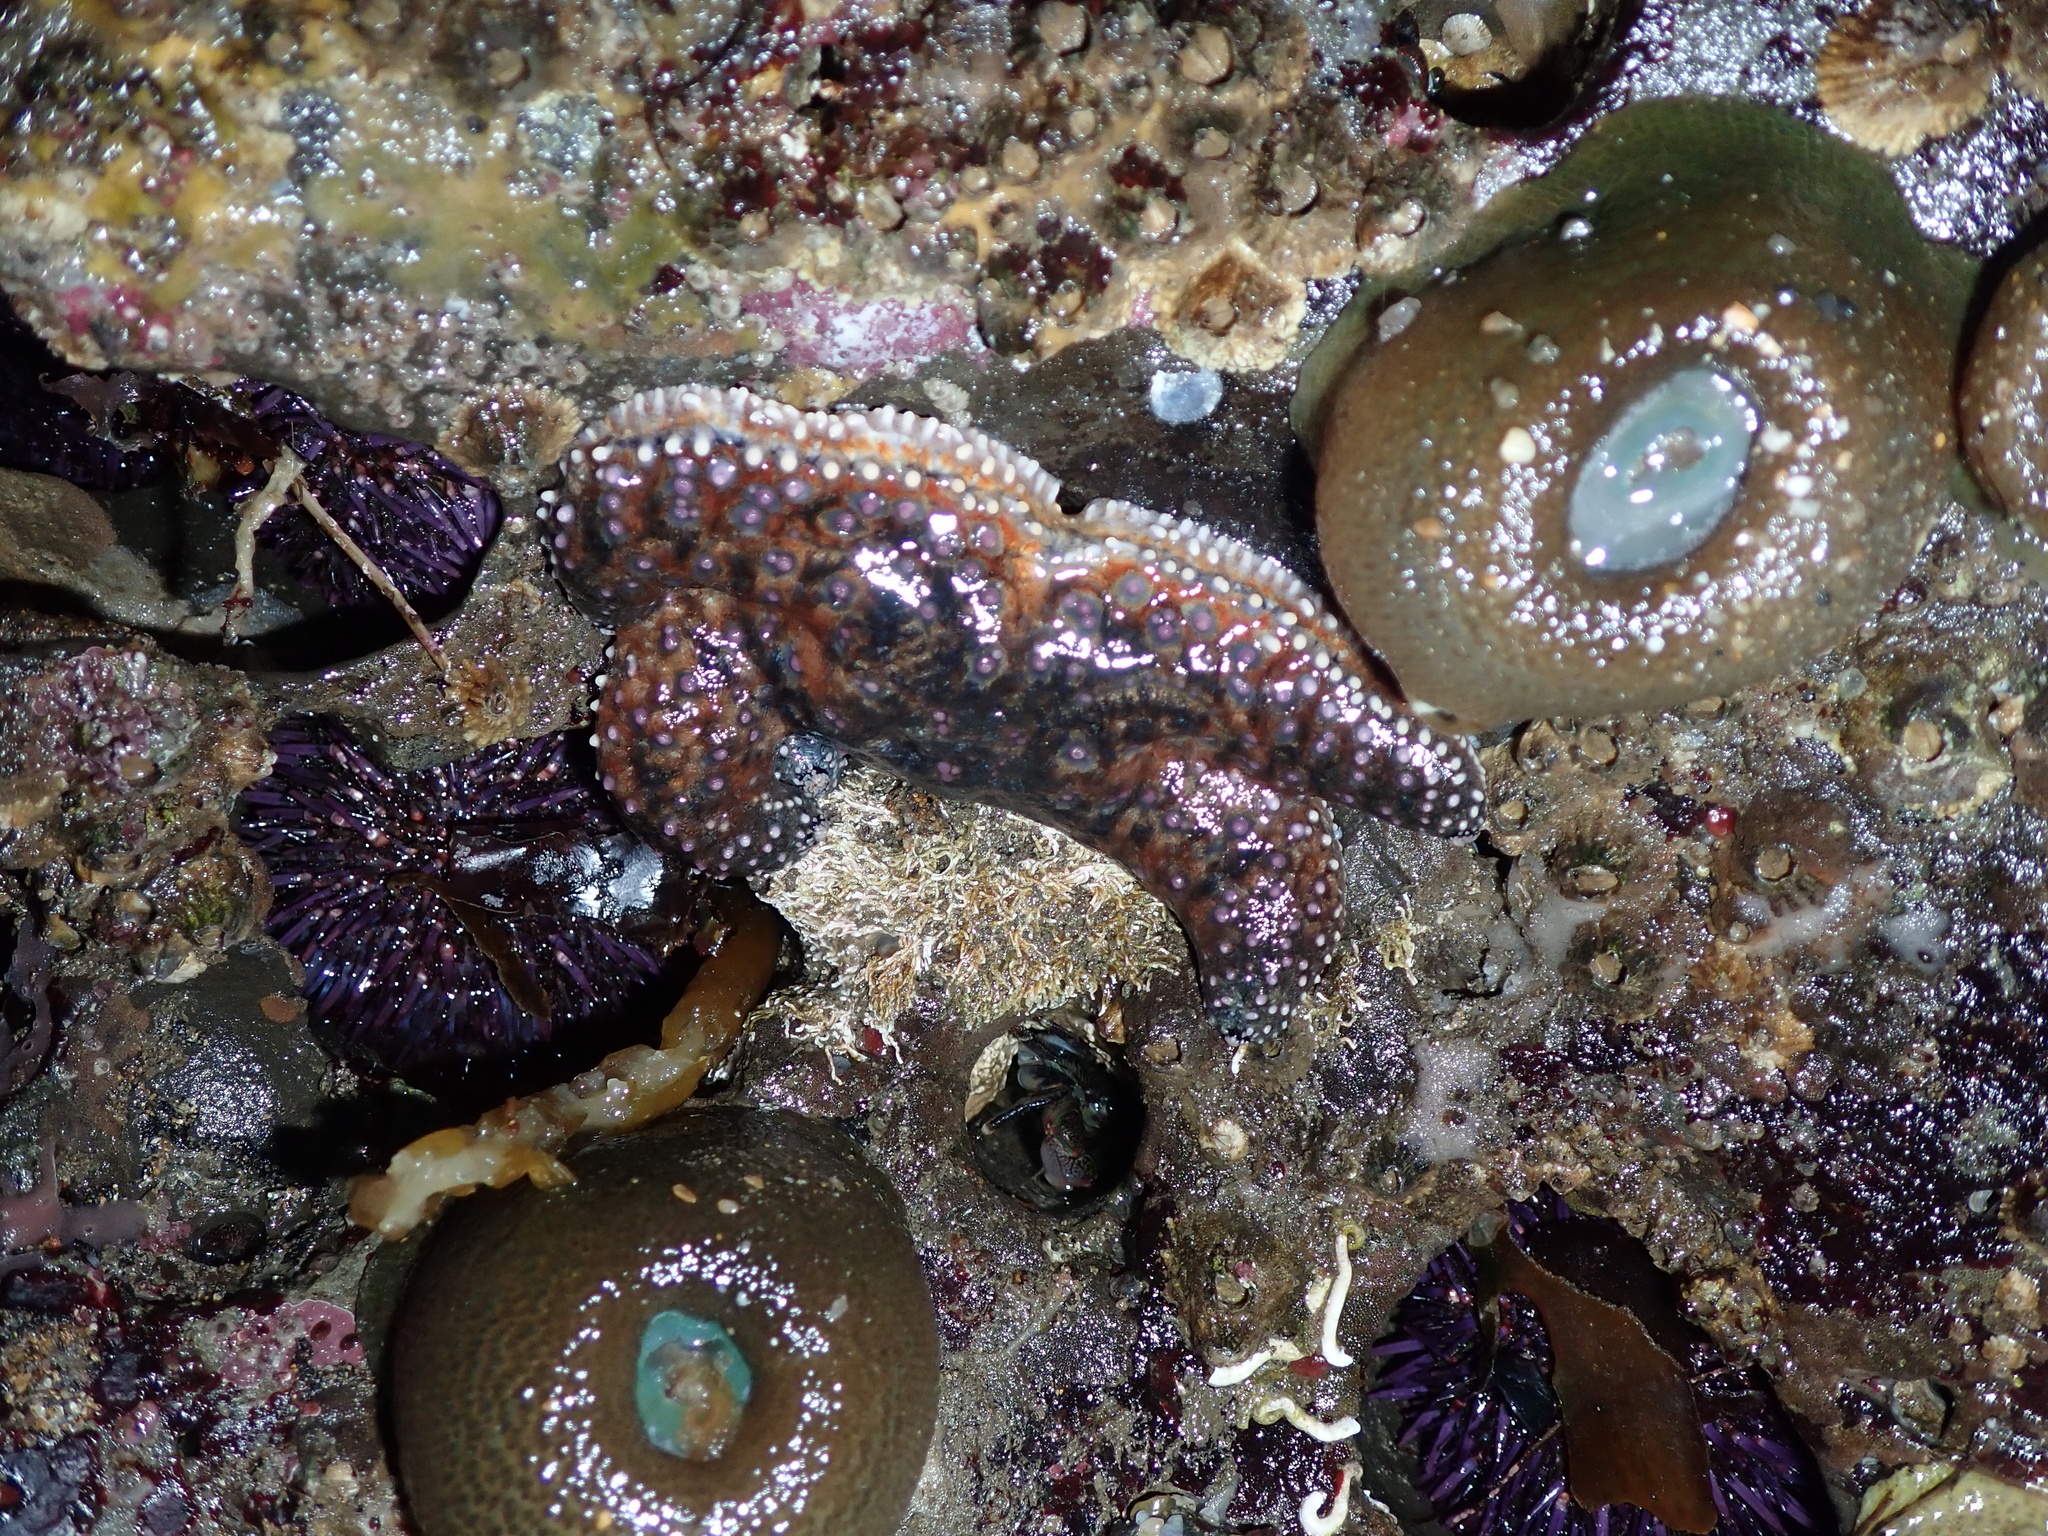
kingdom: Animalia
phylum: Echinodermata
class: Asteroidea
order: Forcipulatida
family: Asteriidae
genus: Pisaster
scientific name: Pisaster giganteus
